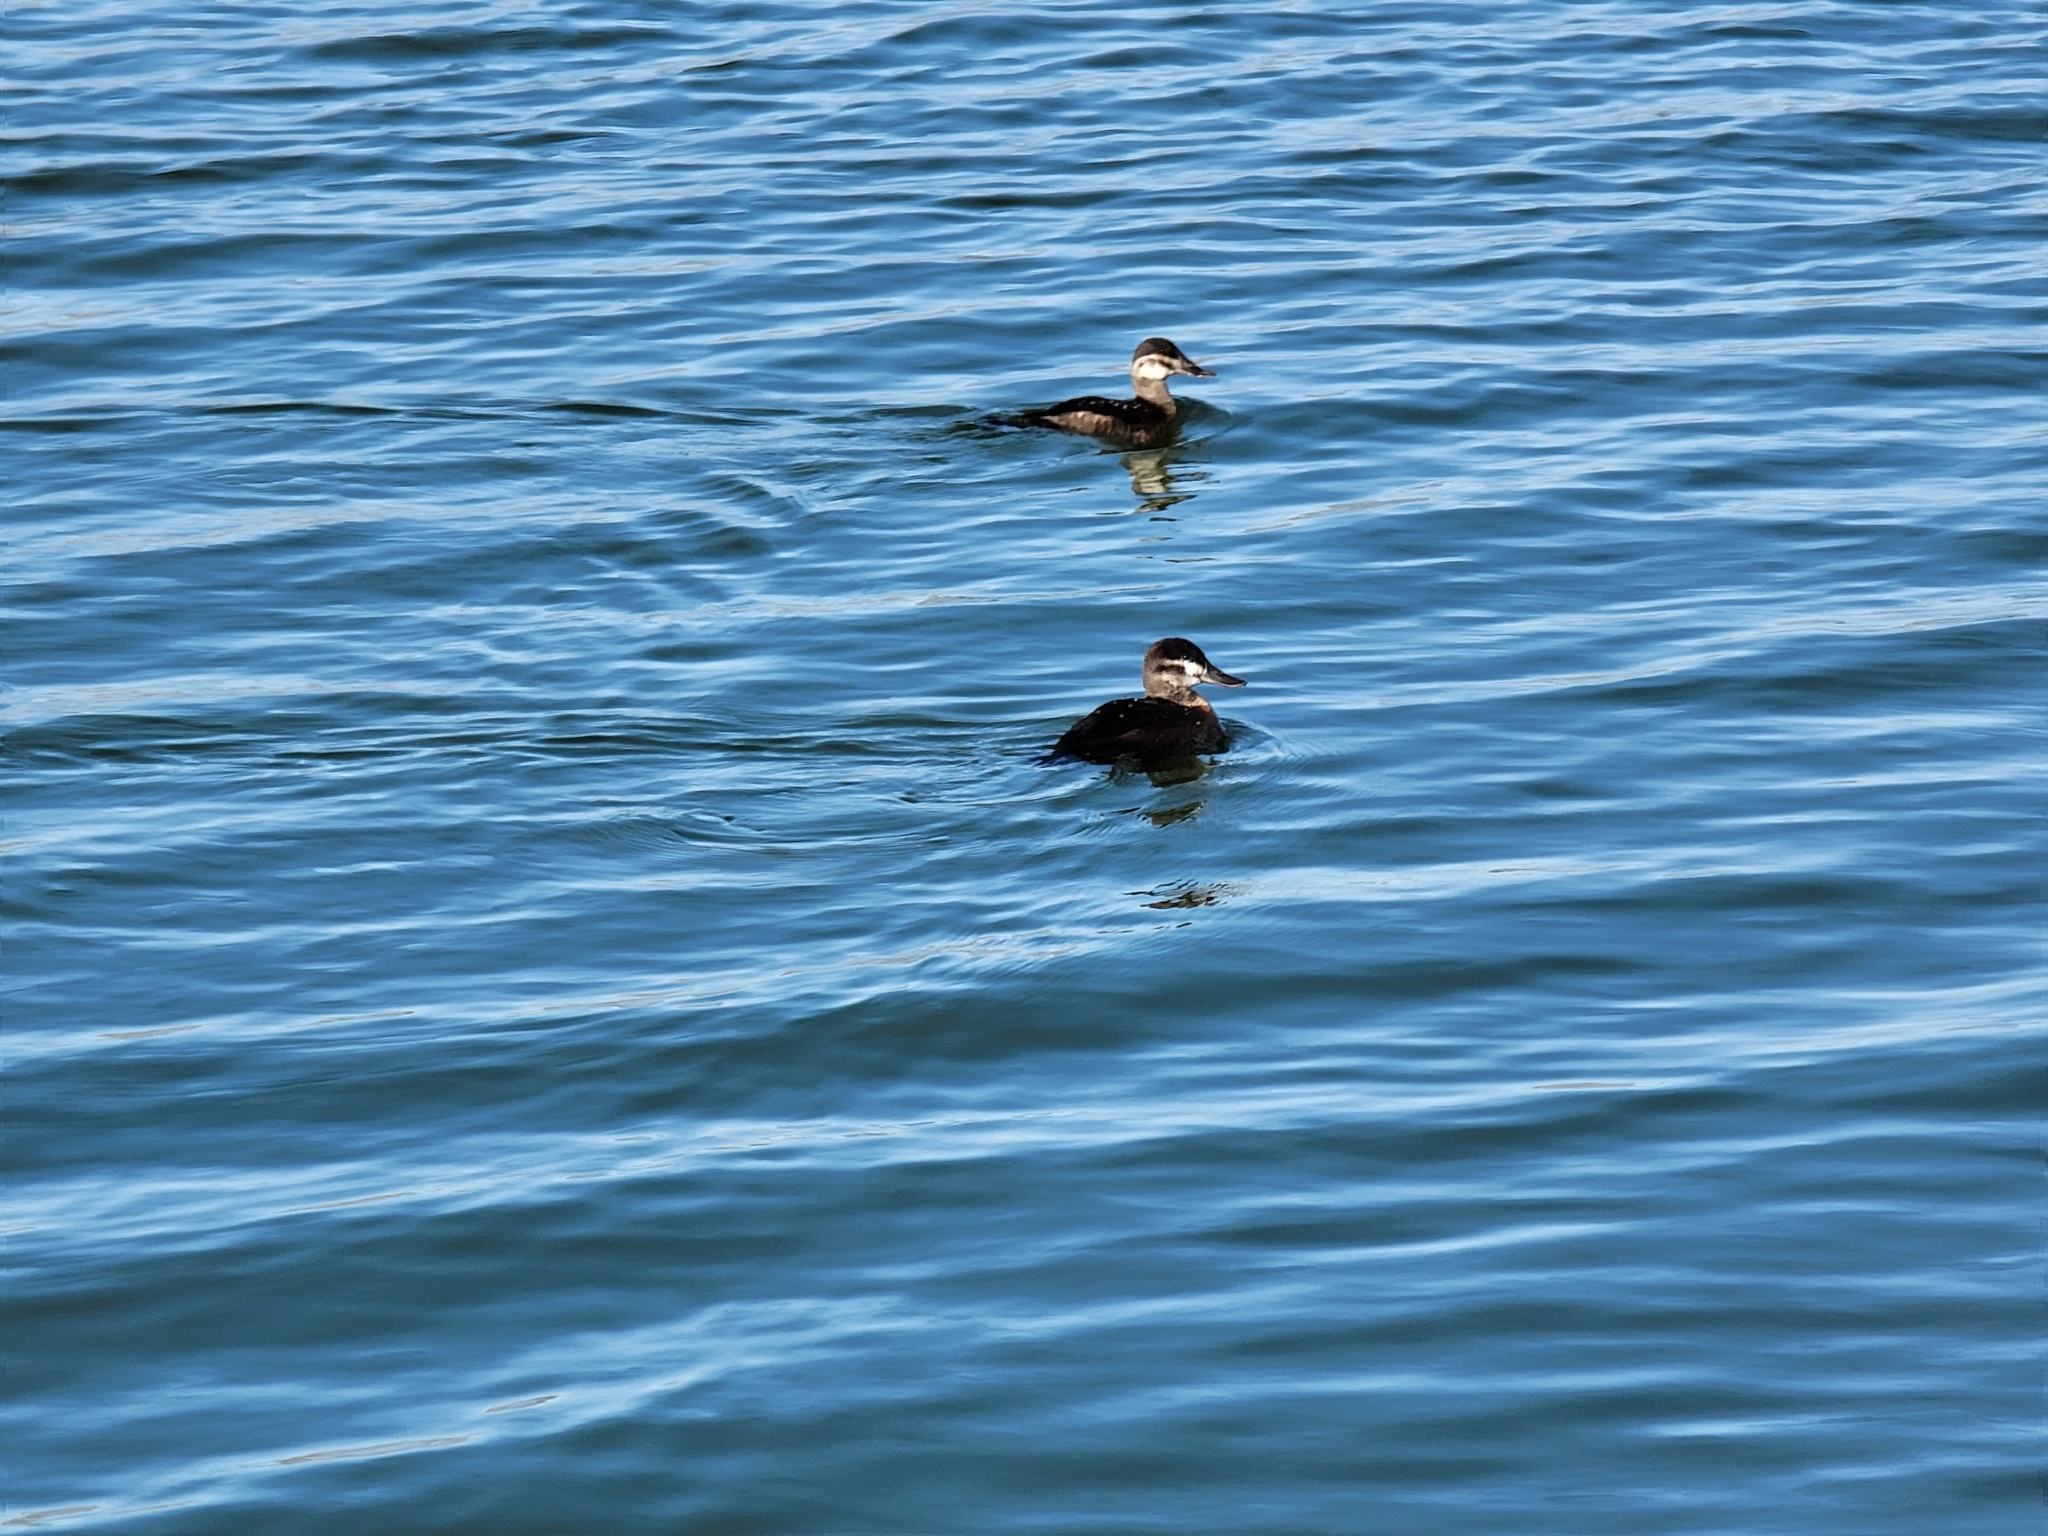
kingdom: Animalia
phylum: Chordata
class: Aves
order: Anseriformes
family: Anatidae
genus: Oxyura
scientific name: Oxyura jamaicensis
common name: Ruddy duck
